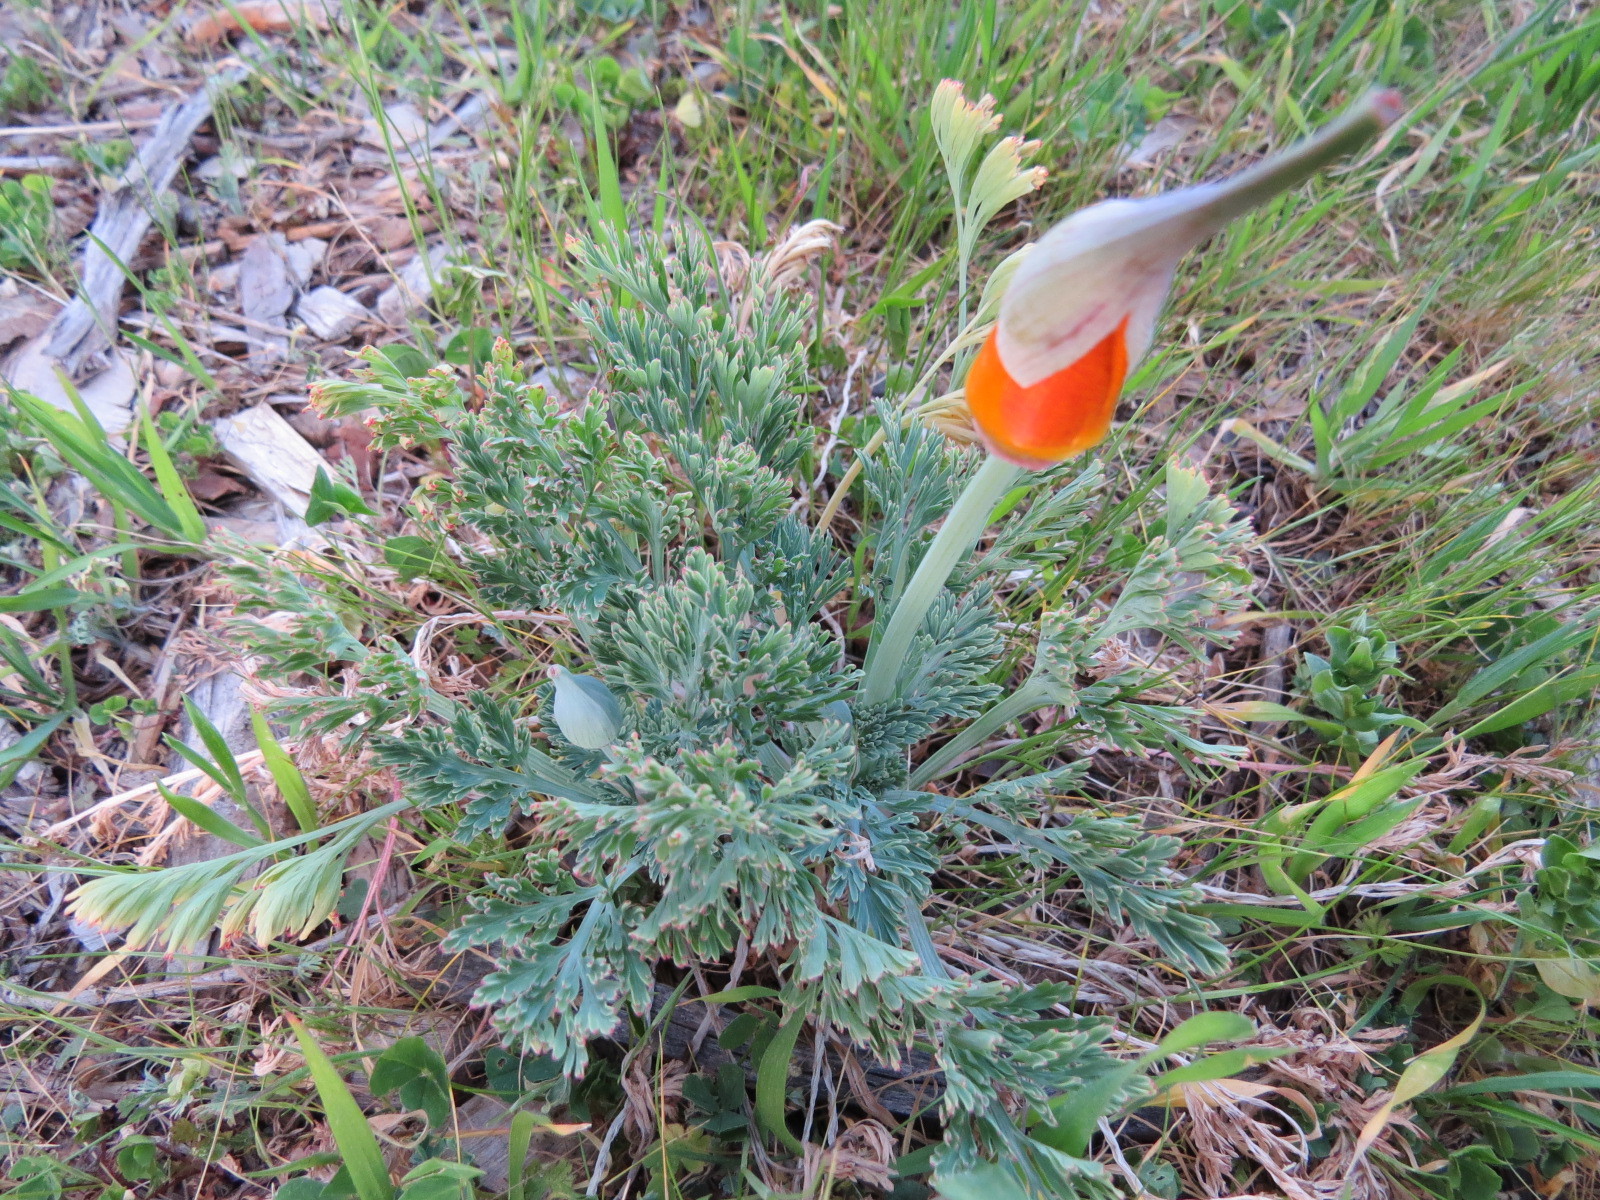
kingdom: Plantae
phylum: Tracheophyta
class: Magnoliopsida
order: Ranunculales
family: Papaveraceae
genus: Eschscholzia
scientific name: Eschscholzia californica
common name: California poppy
